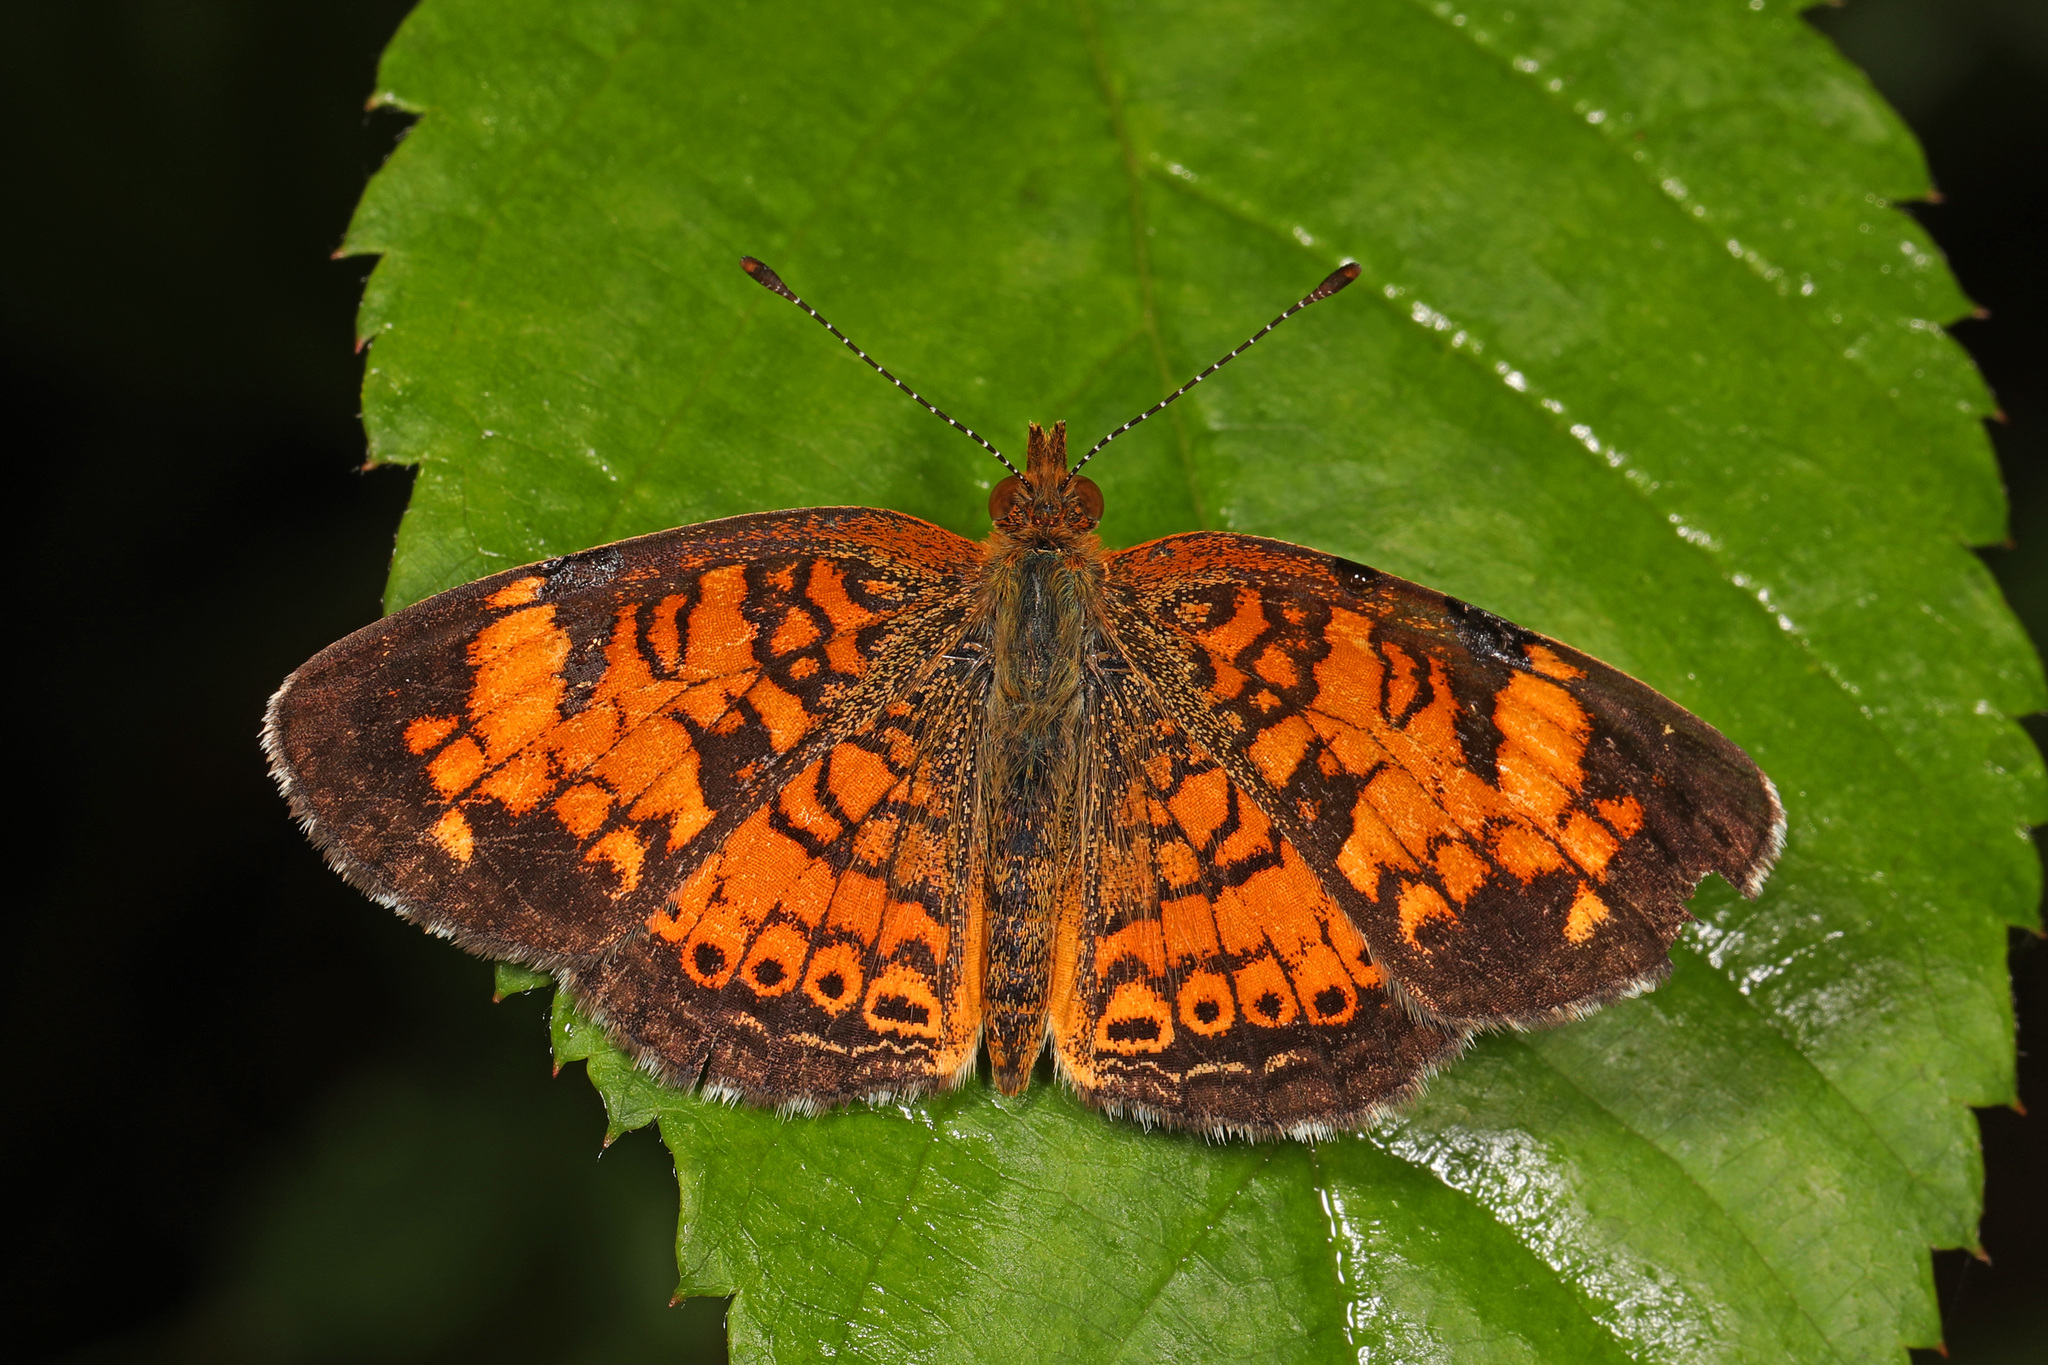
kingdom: Animalia
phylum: Arthropoda
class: Insecta
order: Lepidoptera
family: Nymphalidae
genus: Phyciodes
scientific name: Phyciodes tharos
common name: Pearl crescent
